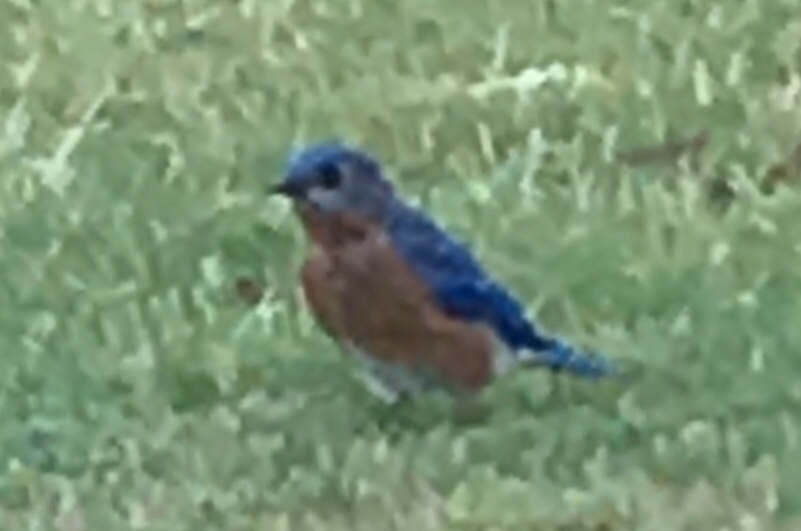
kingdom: Animalia
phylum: Chordata
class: Aves
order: Passeriformes
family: Turdidae
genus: Sialia
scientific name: Sialia sialis
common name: Eastern bluebird
